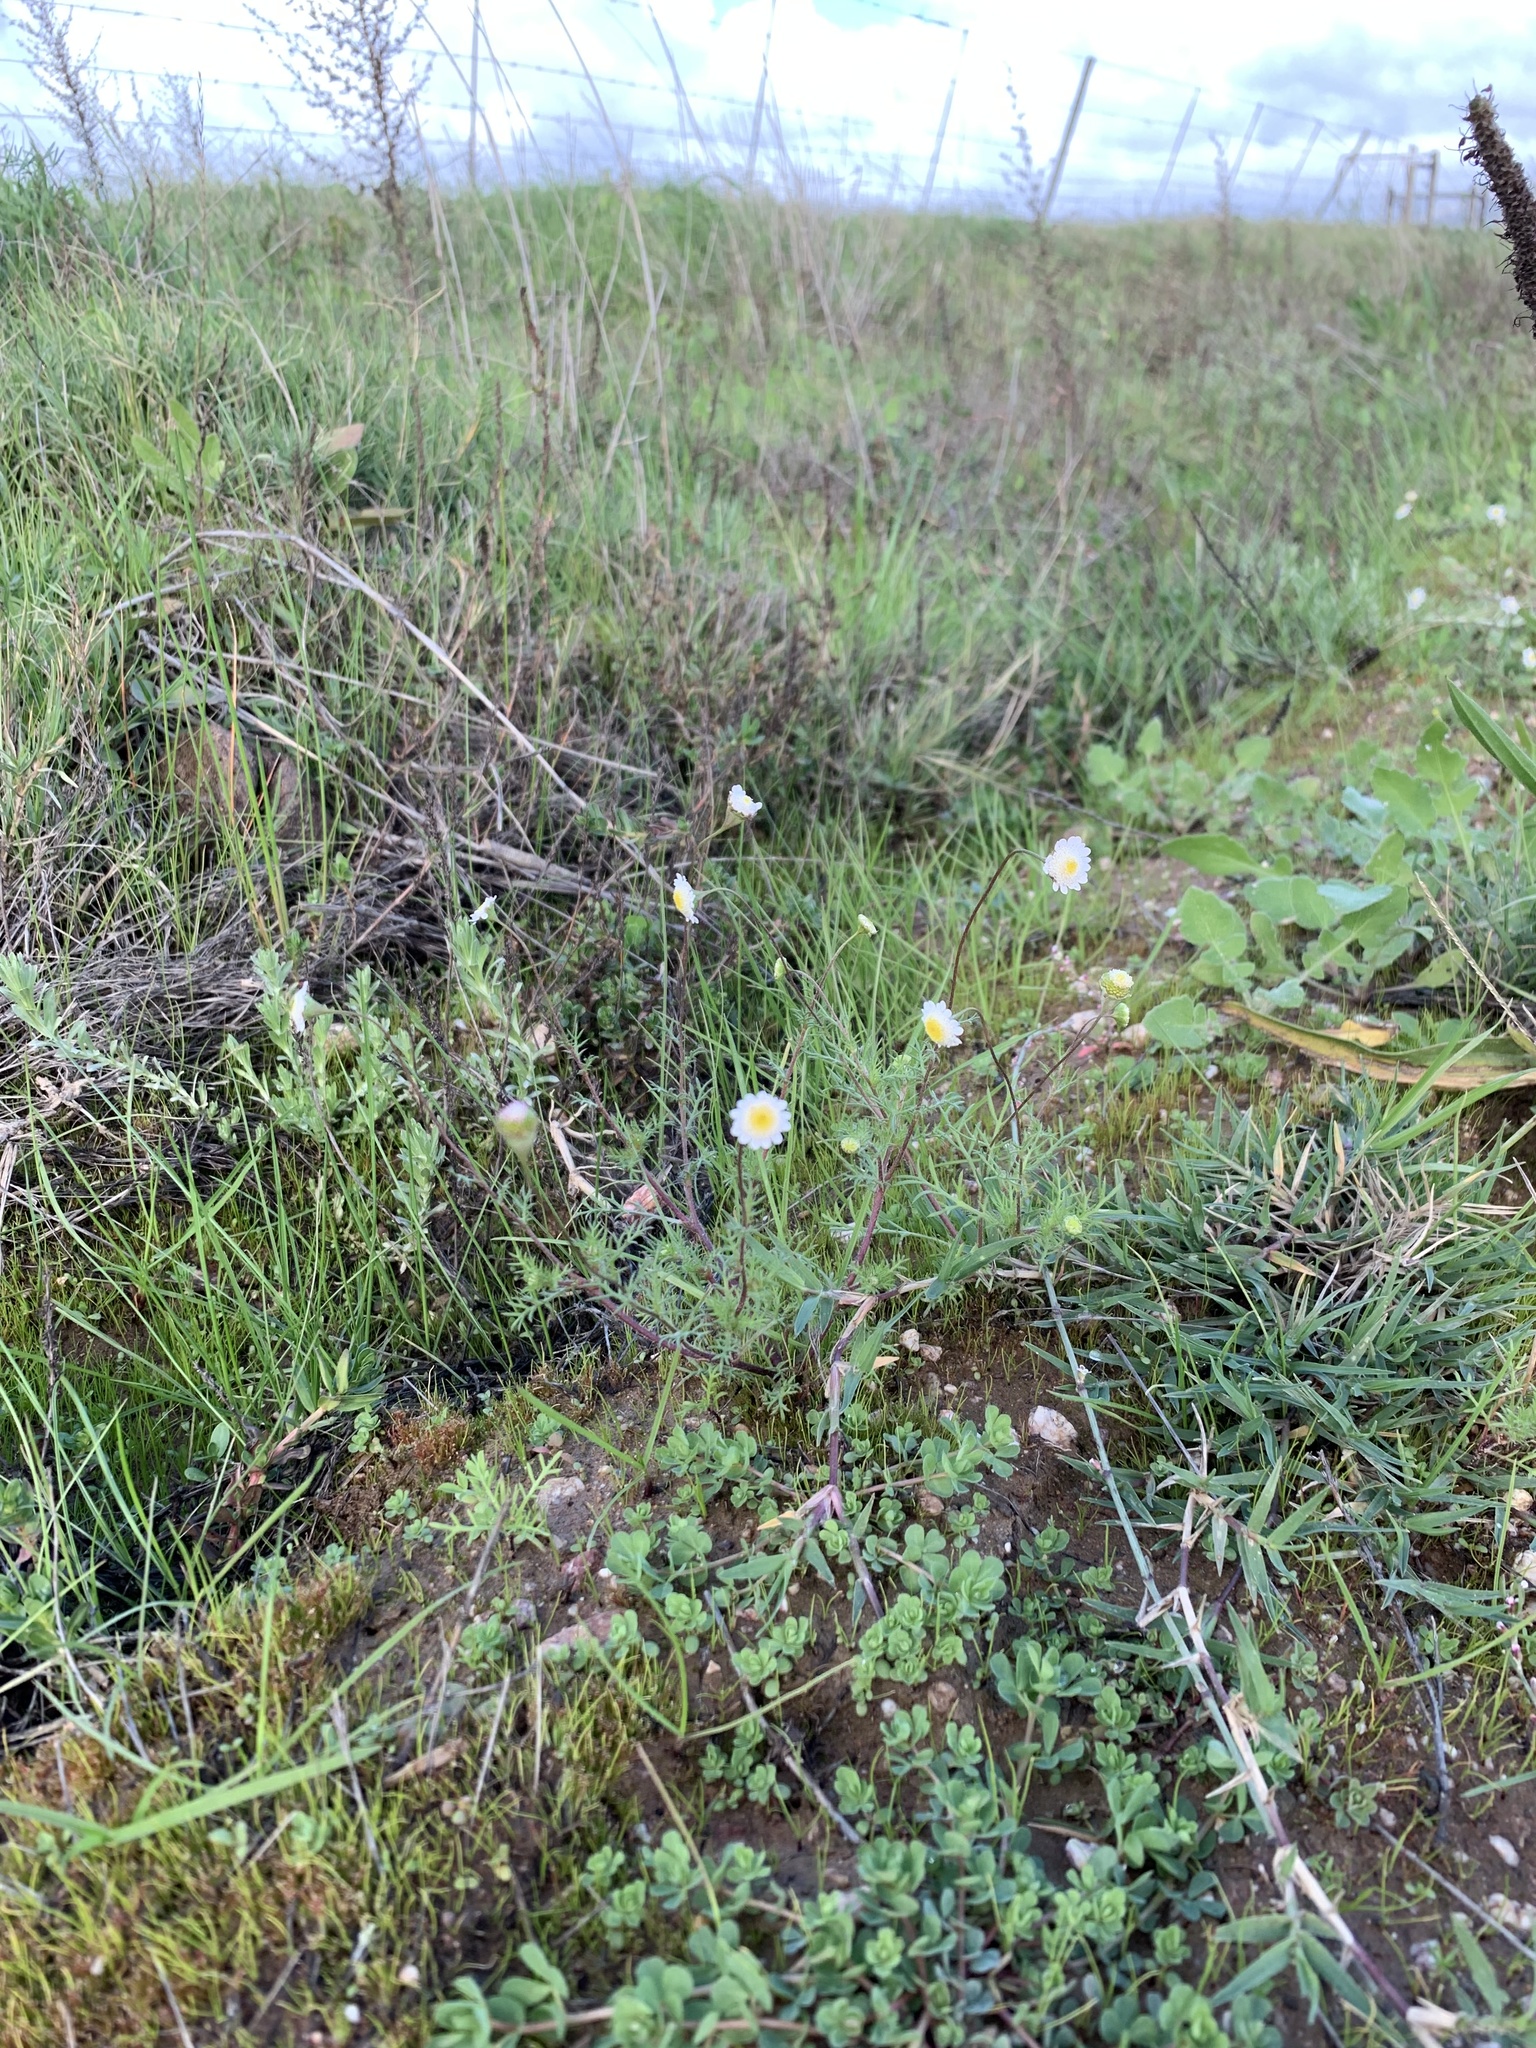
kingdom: Plantae
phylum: Tracheophyta
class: Magnoliopsida
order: Asterales
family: Asteraceae
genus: Cotula
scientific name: Cotula turbinata
